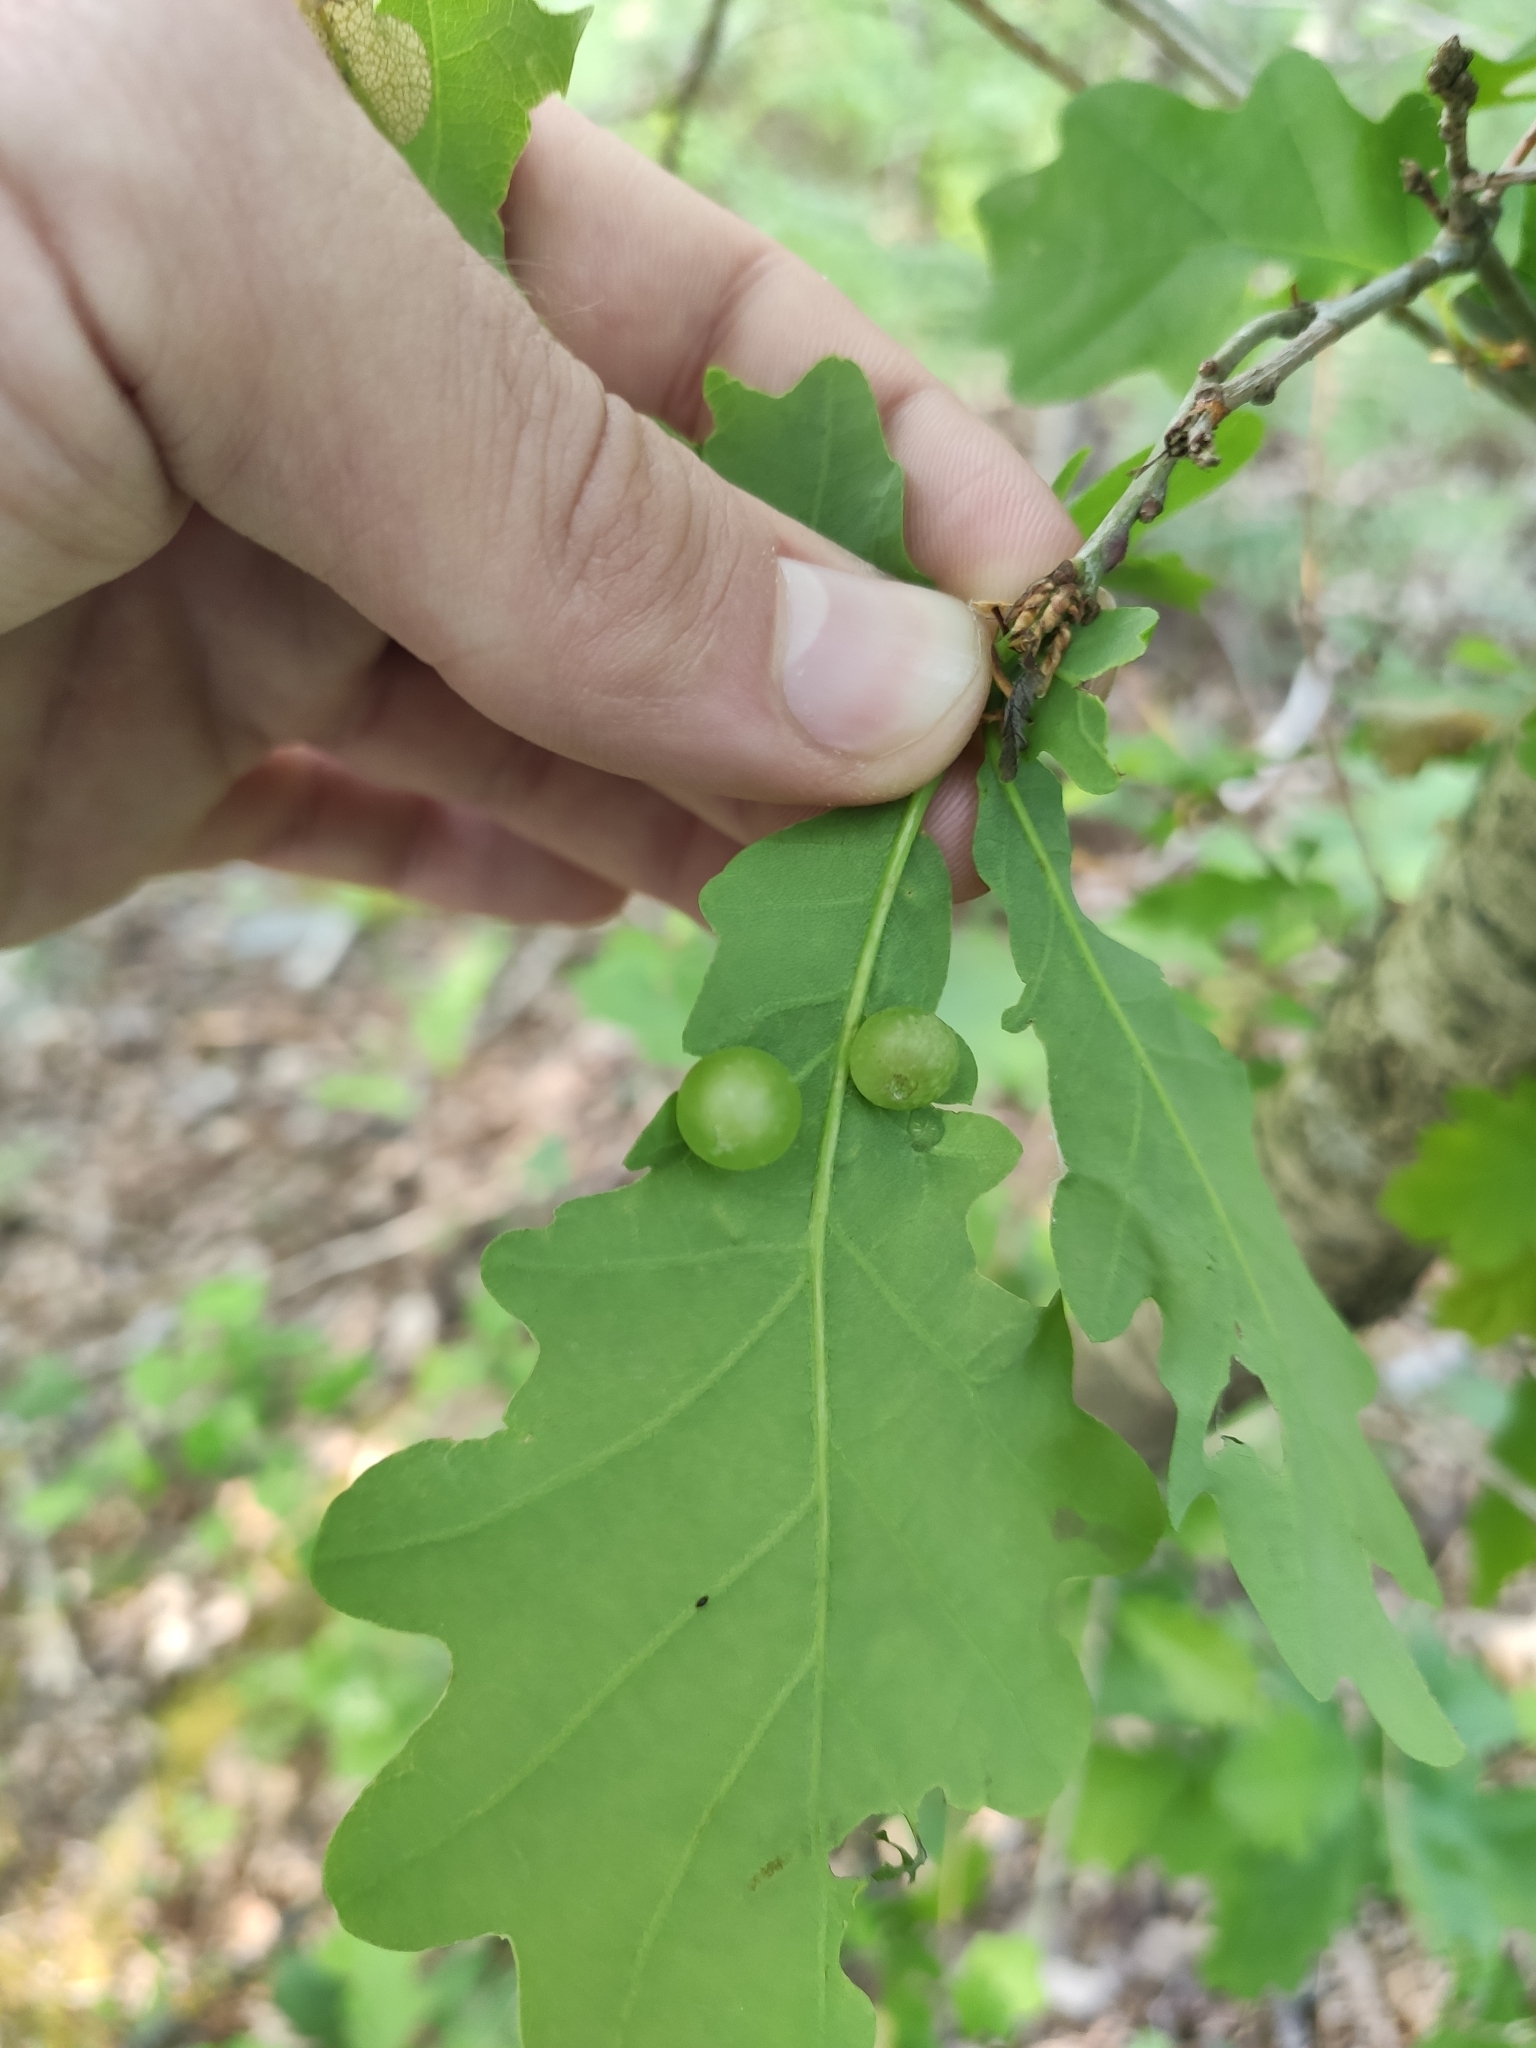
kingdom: Animalia
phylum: Arthropoda
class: Insecta
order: Hymenoptera
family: Cynipidae
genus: Neuroterus
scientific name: Neuroterus quercusbaccarum
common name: Common spangle gall
